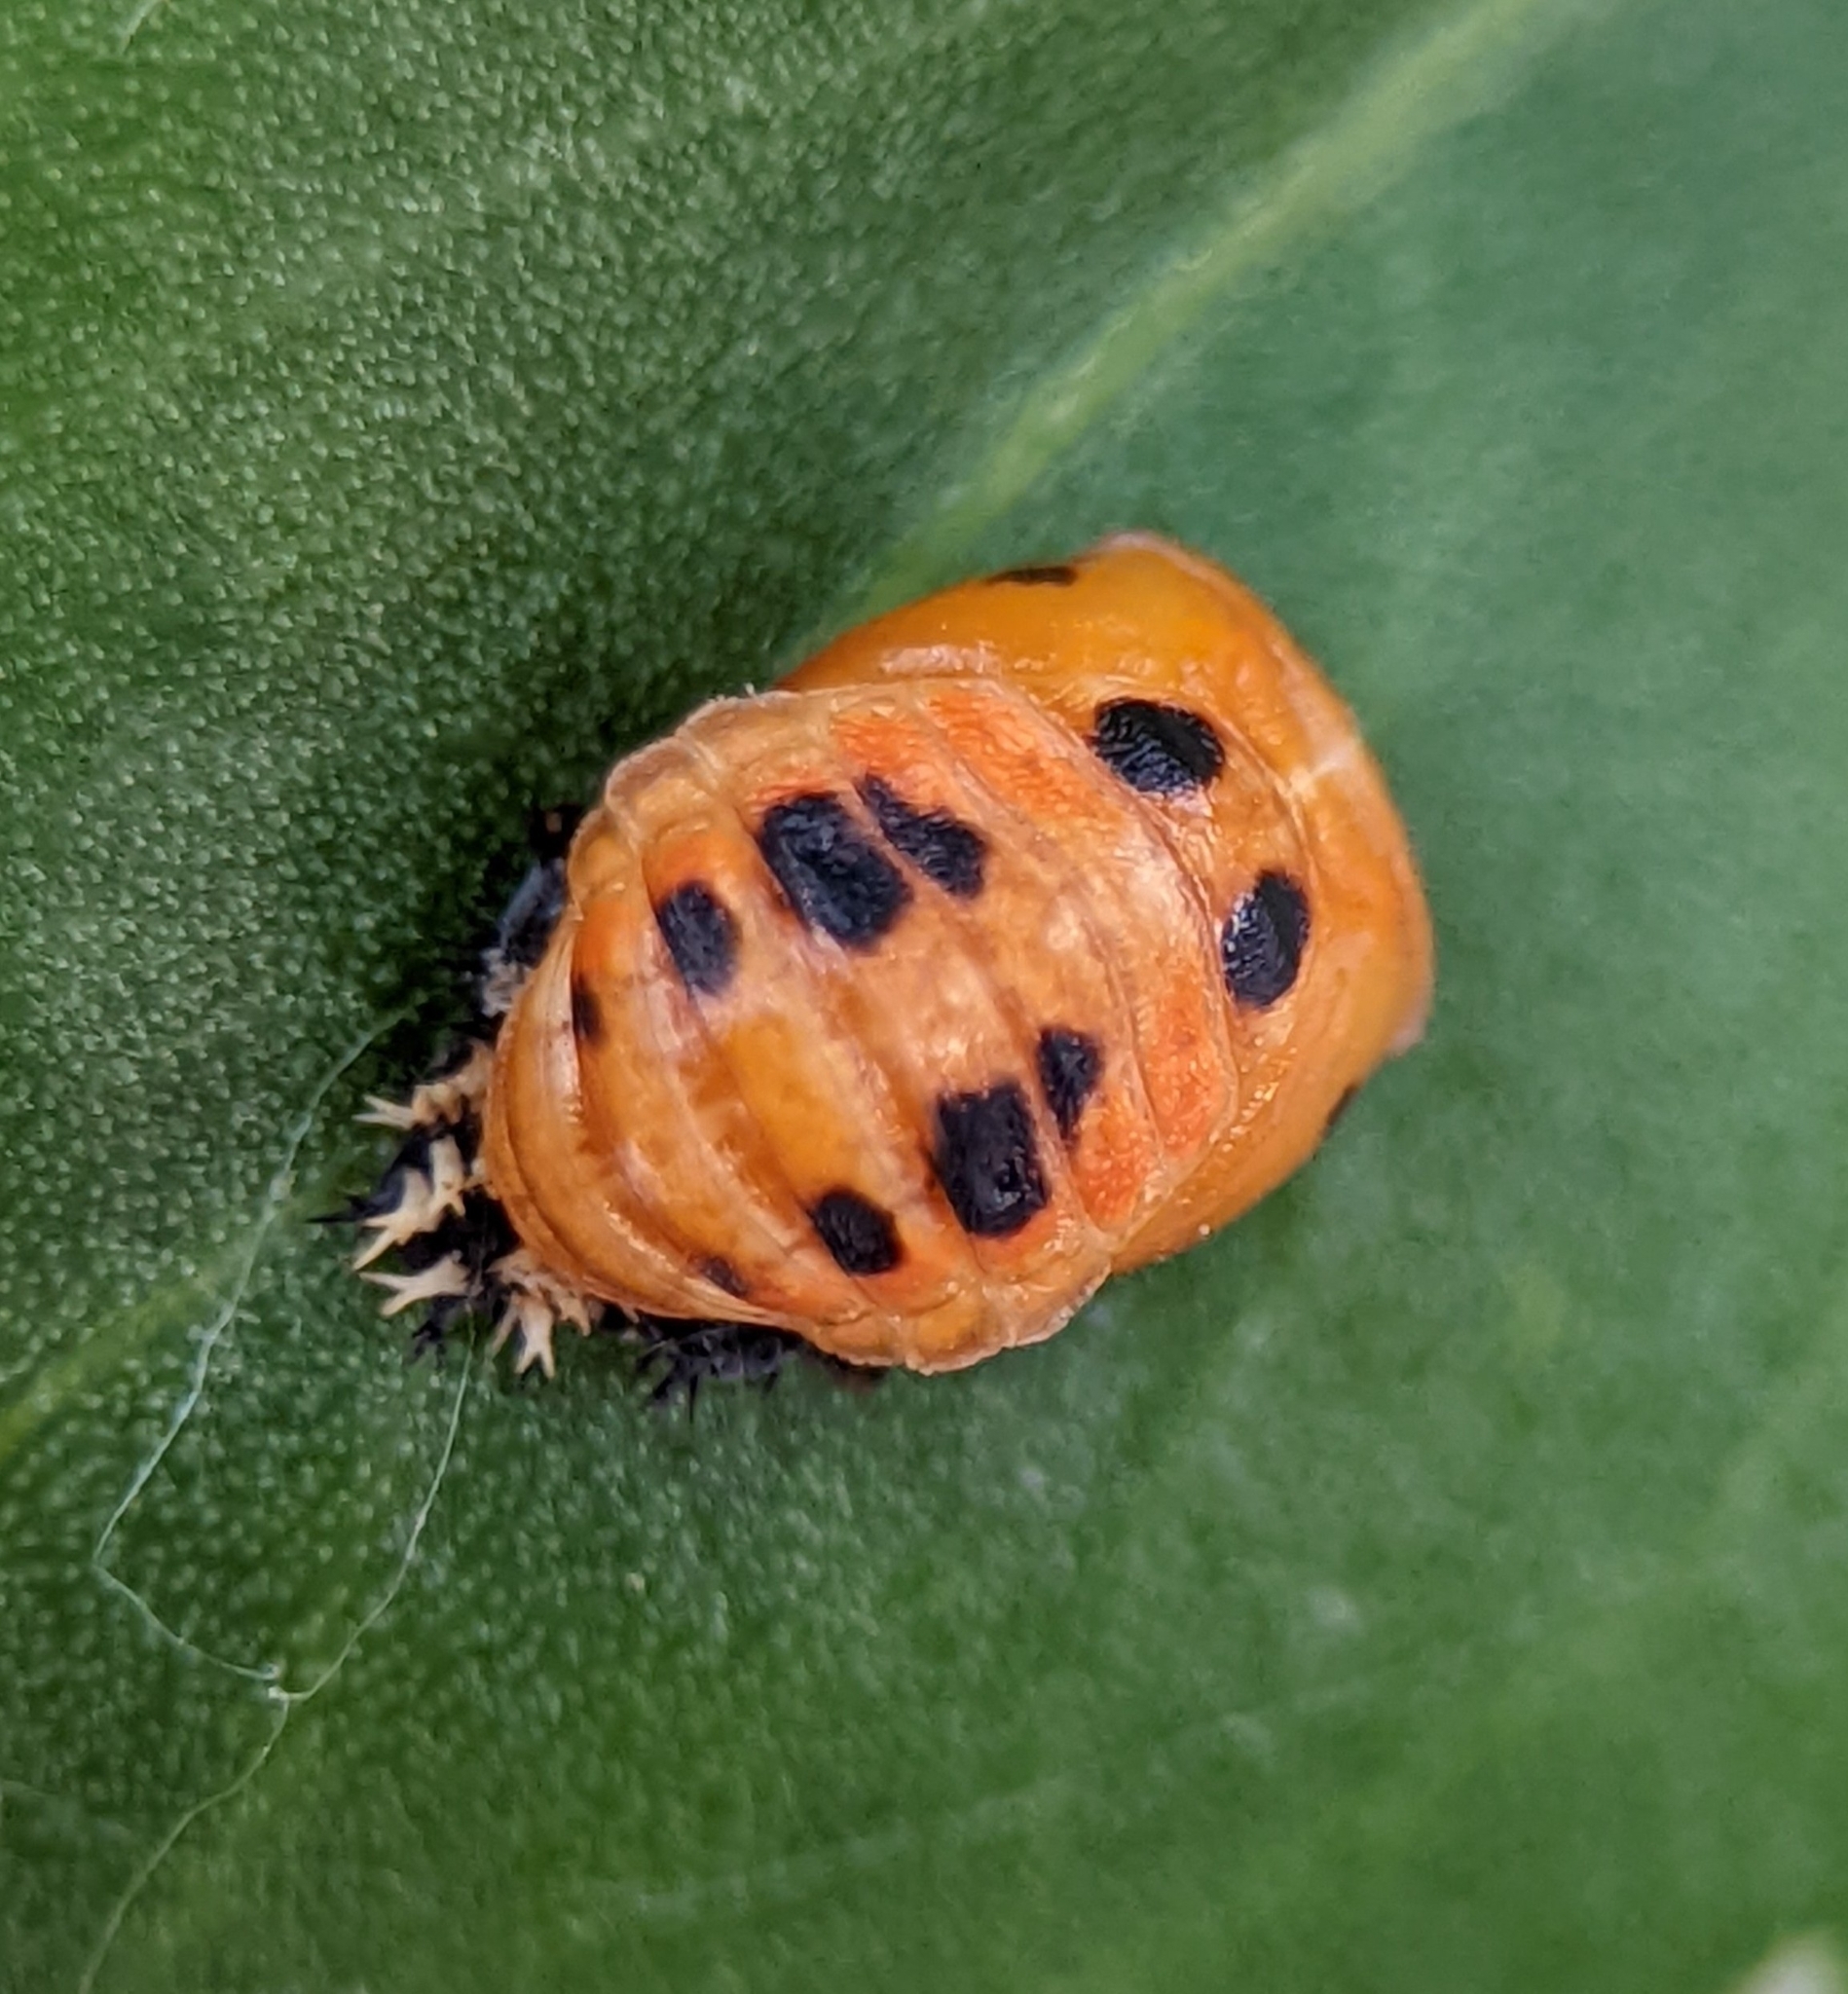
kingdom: Animalia
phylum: Arthropoda
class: Insecta
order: Coleoptera
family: Coccinellidae
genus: Harmonia
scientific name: Harmonia axyridis
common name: Harlequin ladybird
